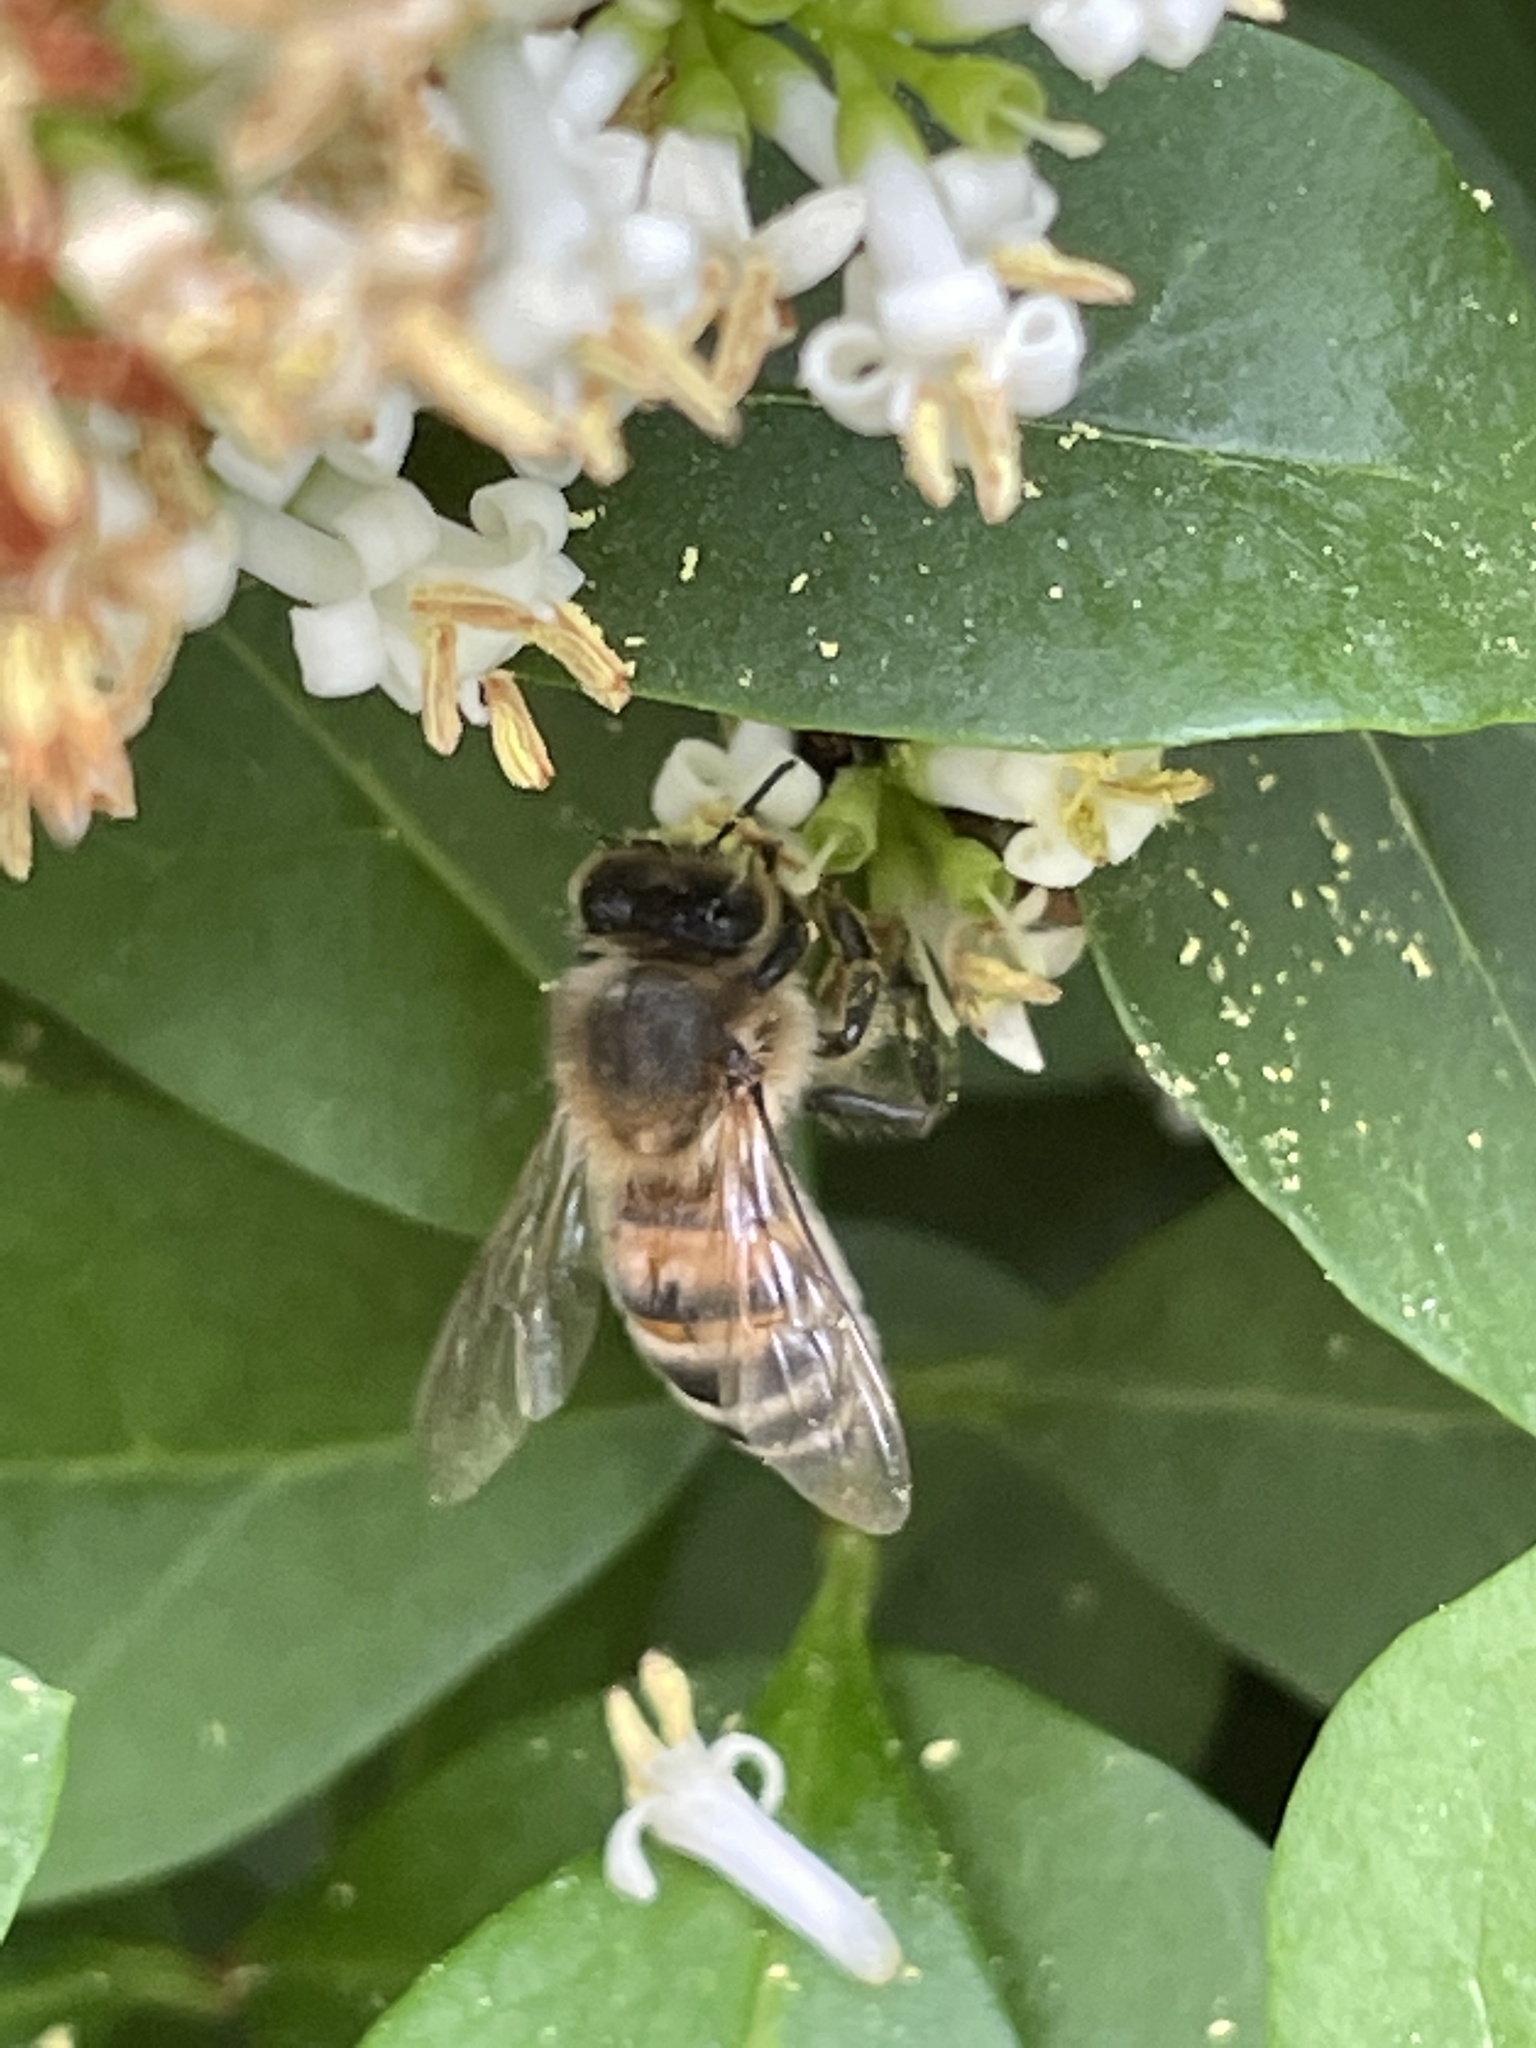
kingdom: Animalia
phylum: Arthropoda
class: Insecta
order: Hymenoptera
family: Apidae
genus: Apis
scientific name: Apis mellifera
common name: Honey bee
